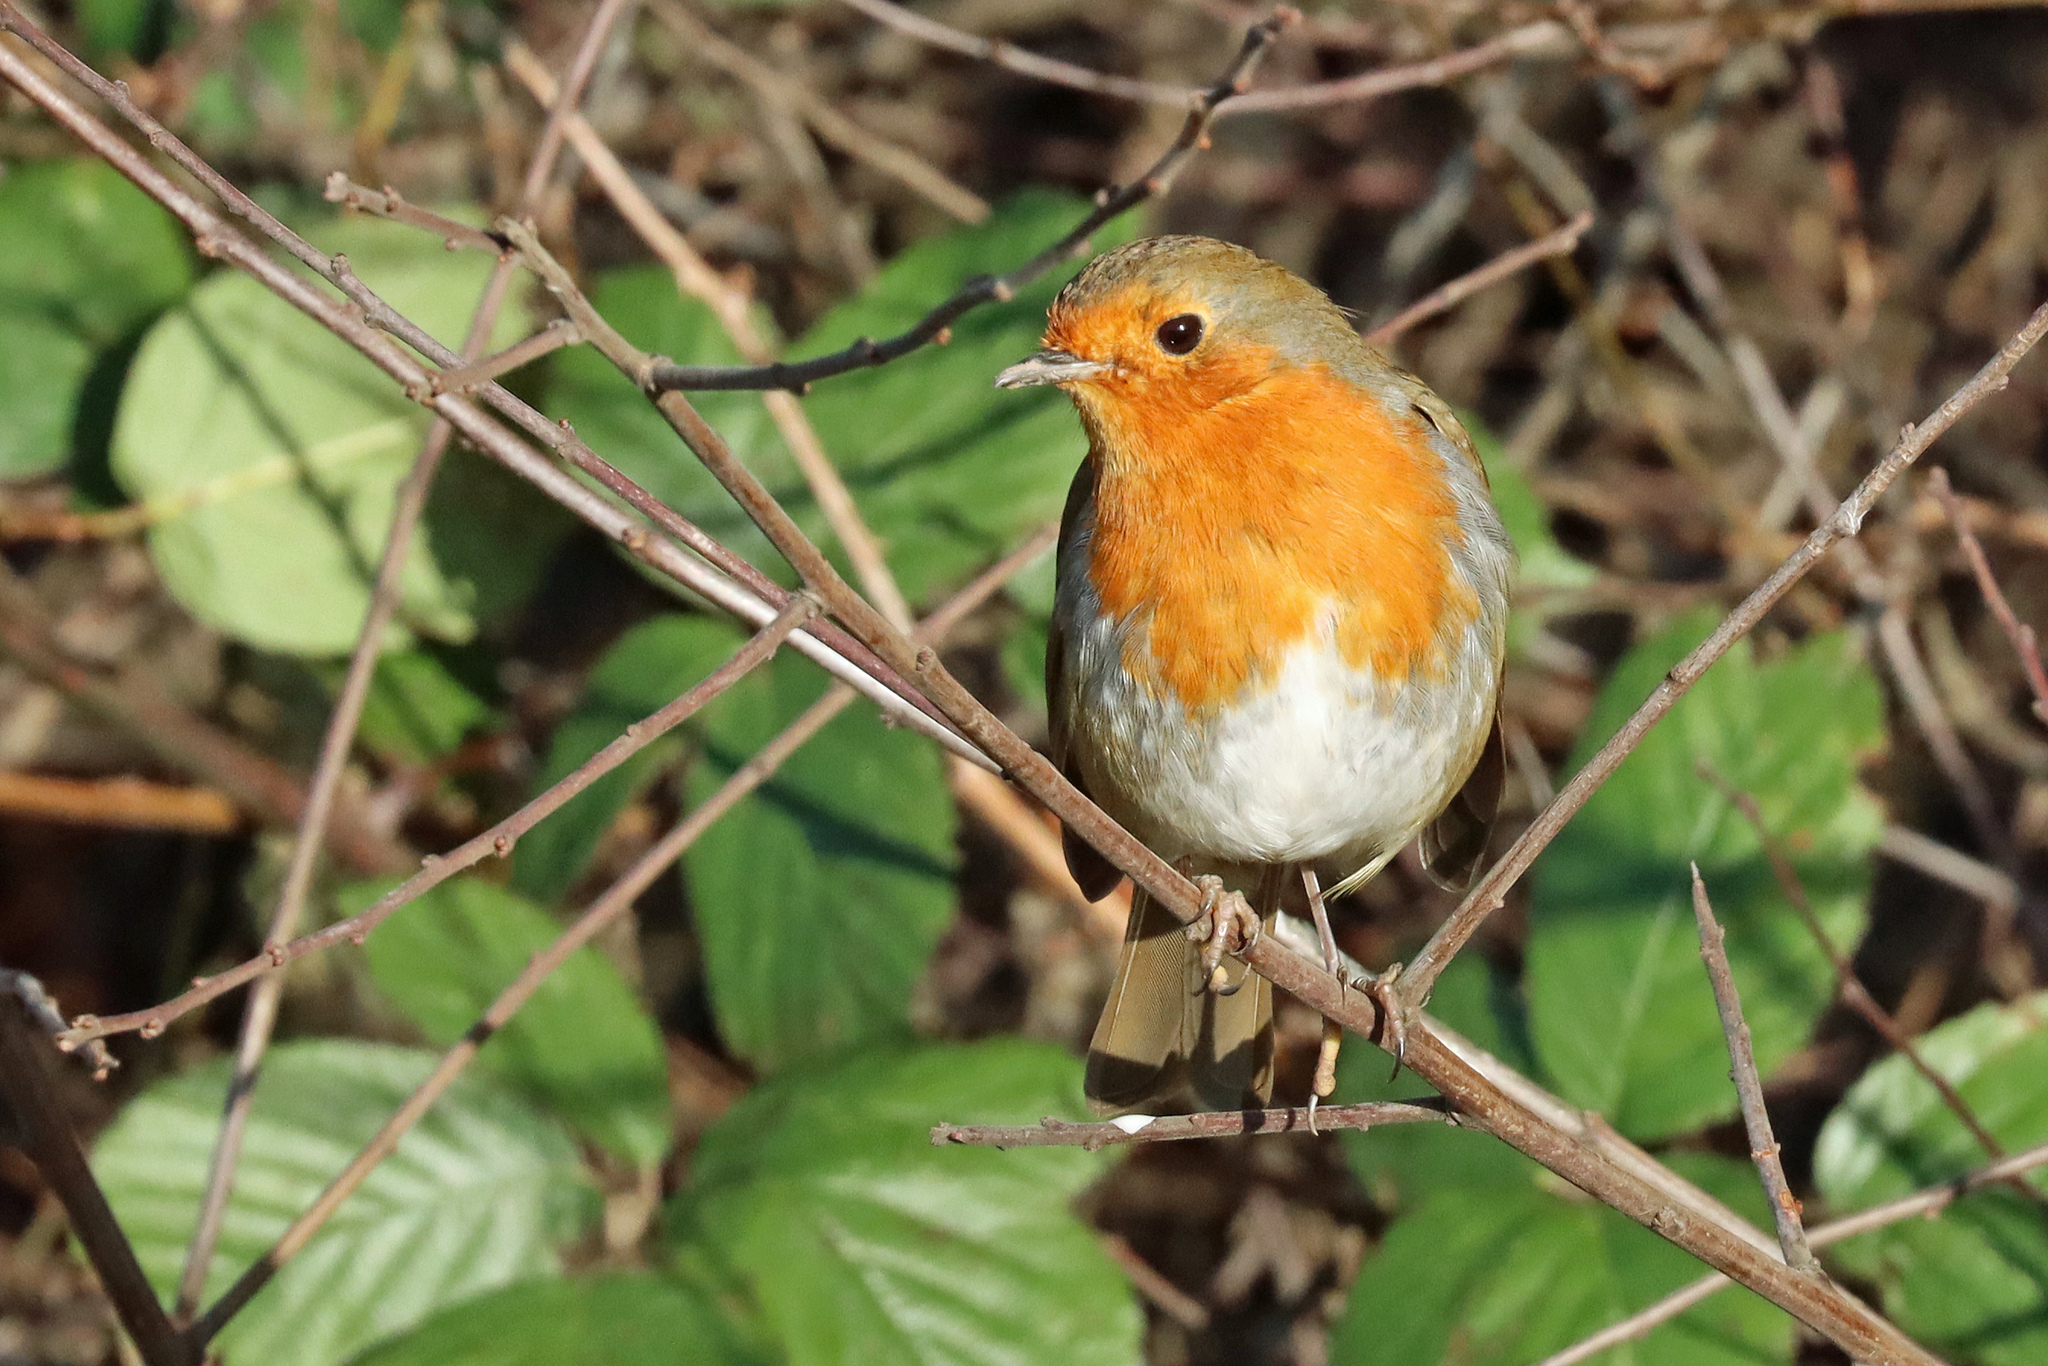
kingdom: Animalia
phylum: Chordata
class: Aves
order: Passeriformes
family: Muscicapidae
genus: Erithacus
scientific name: Erithacus rubecula
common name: European robin
